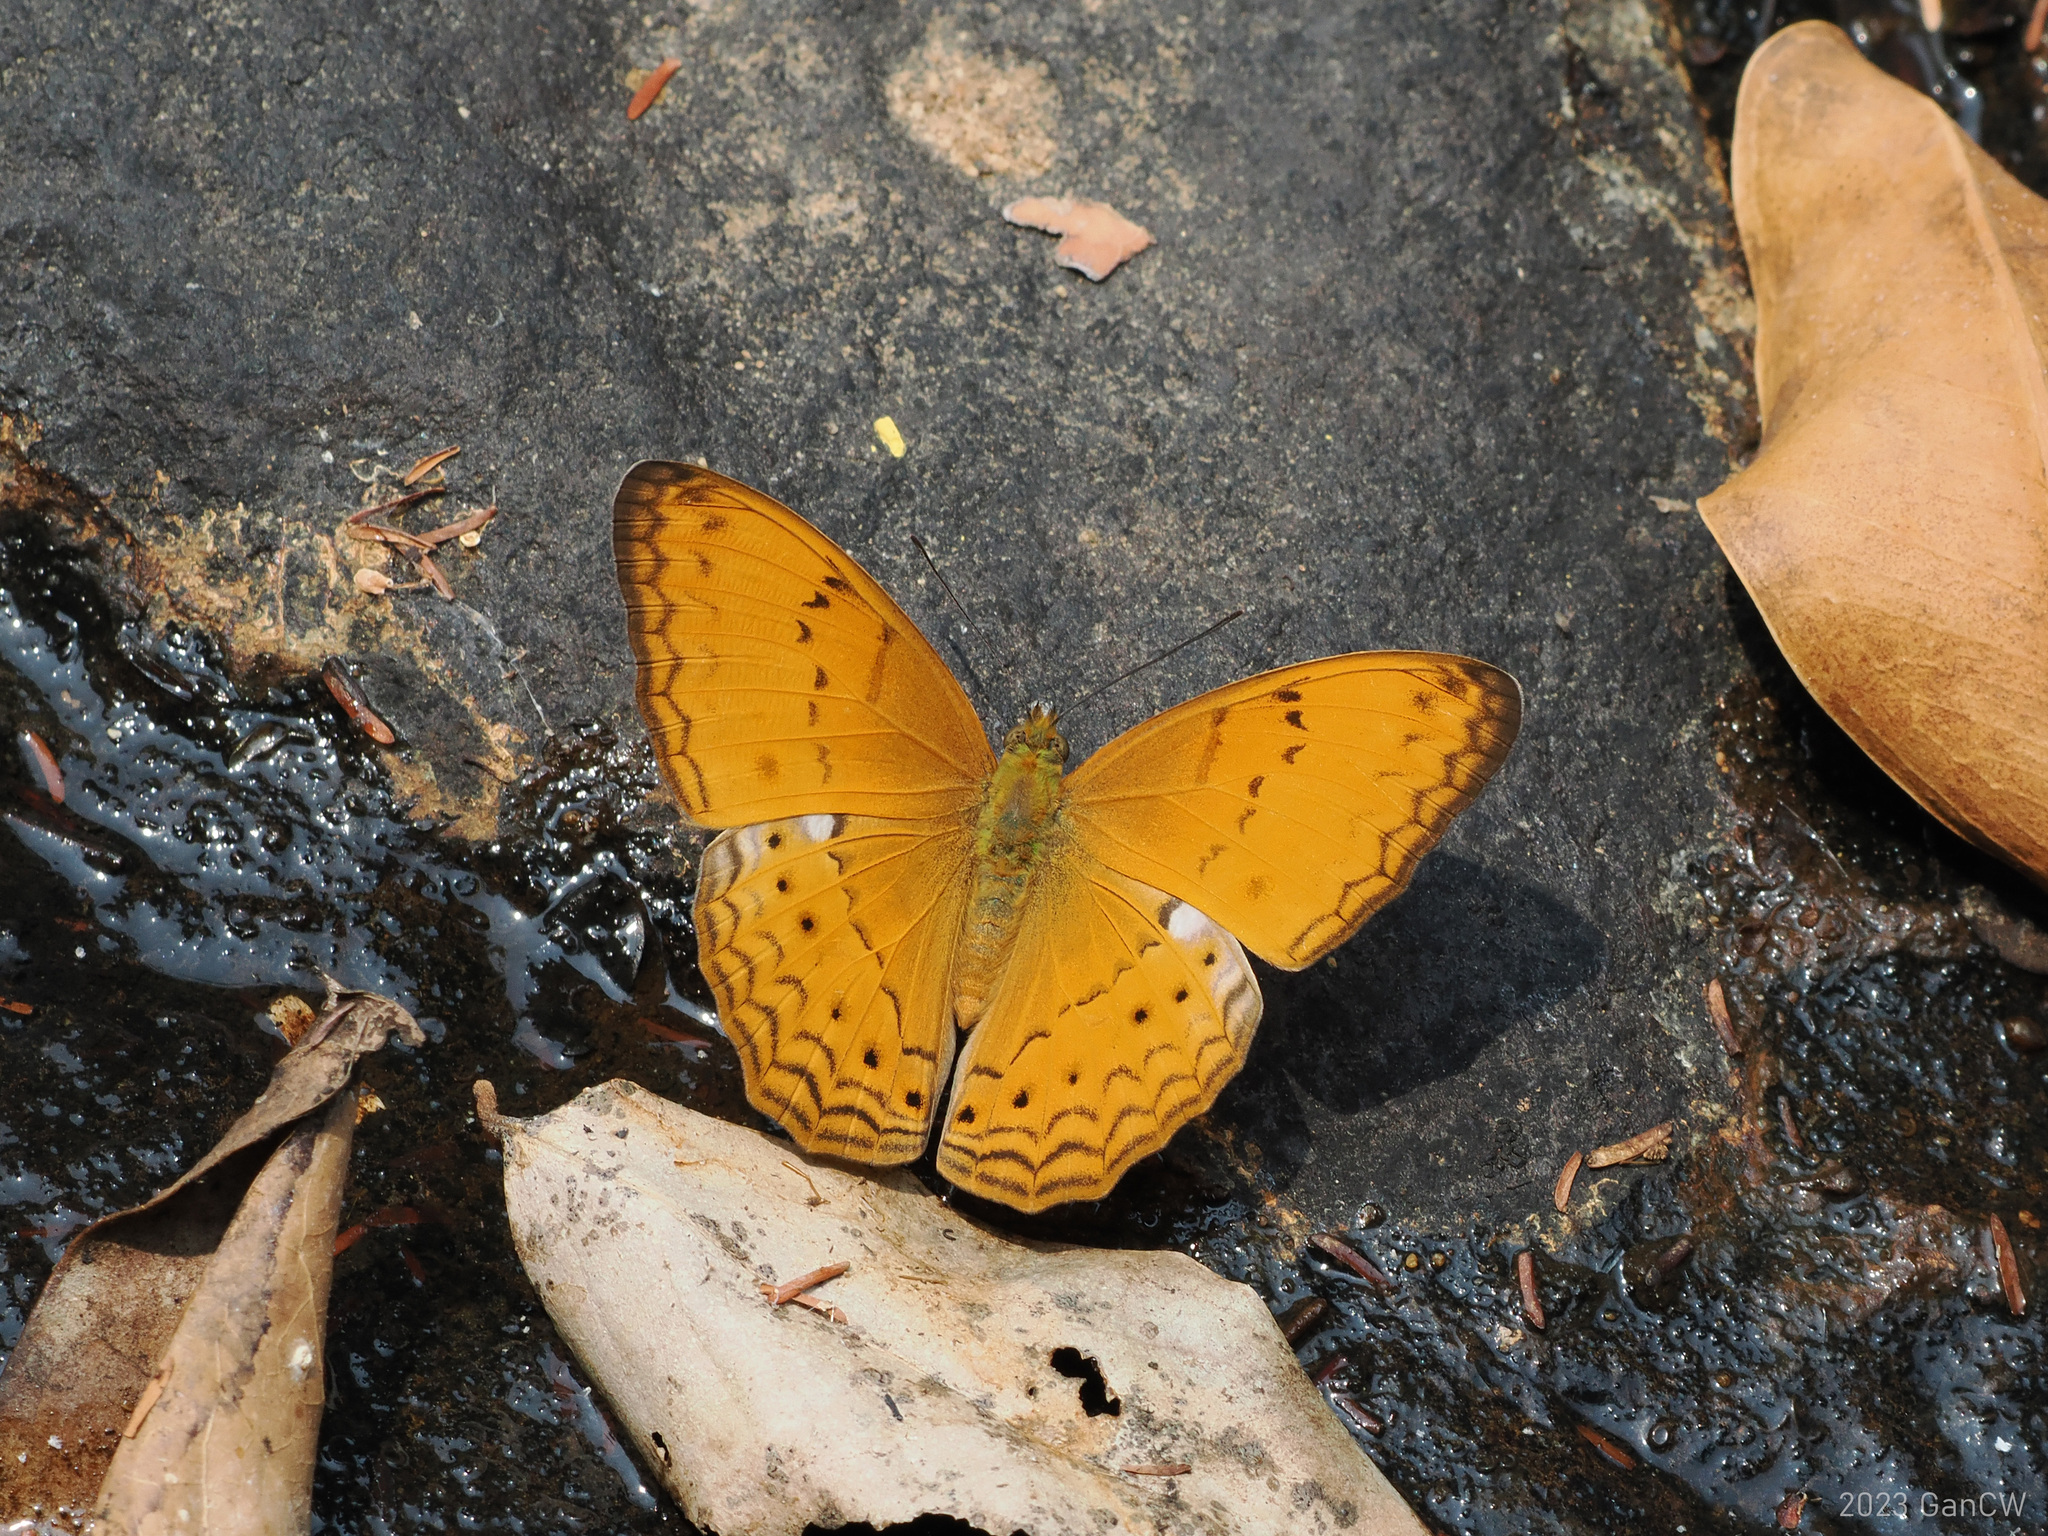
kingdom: Animalia
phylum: Arthropoda
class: Insecta
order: Lepidoptera
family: Nymphalidae
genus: Cirrochroa
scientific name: Cirrochroa tyche
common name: Common yeoman
